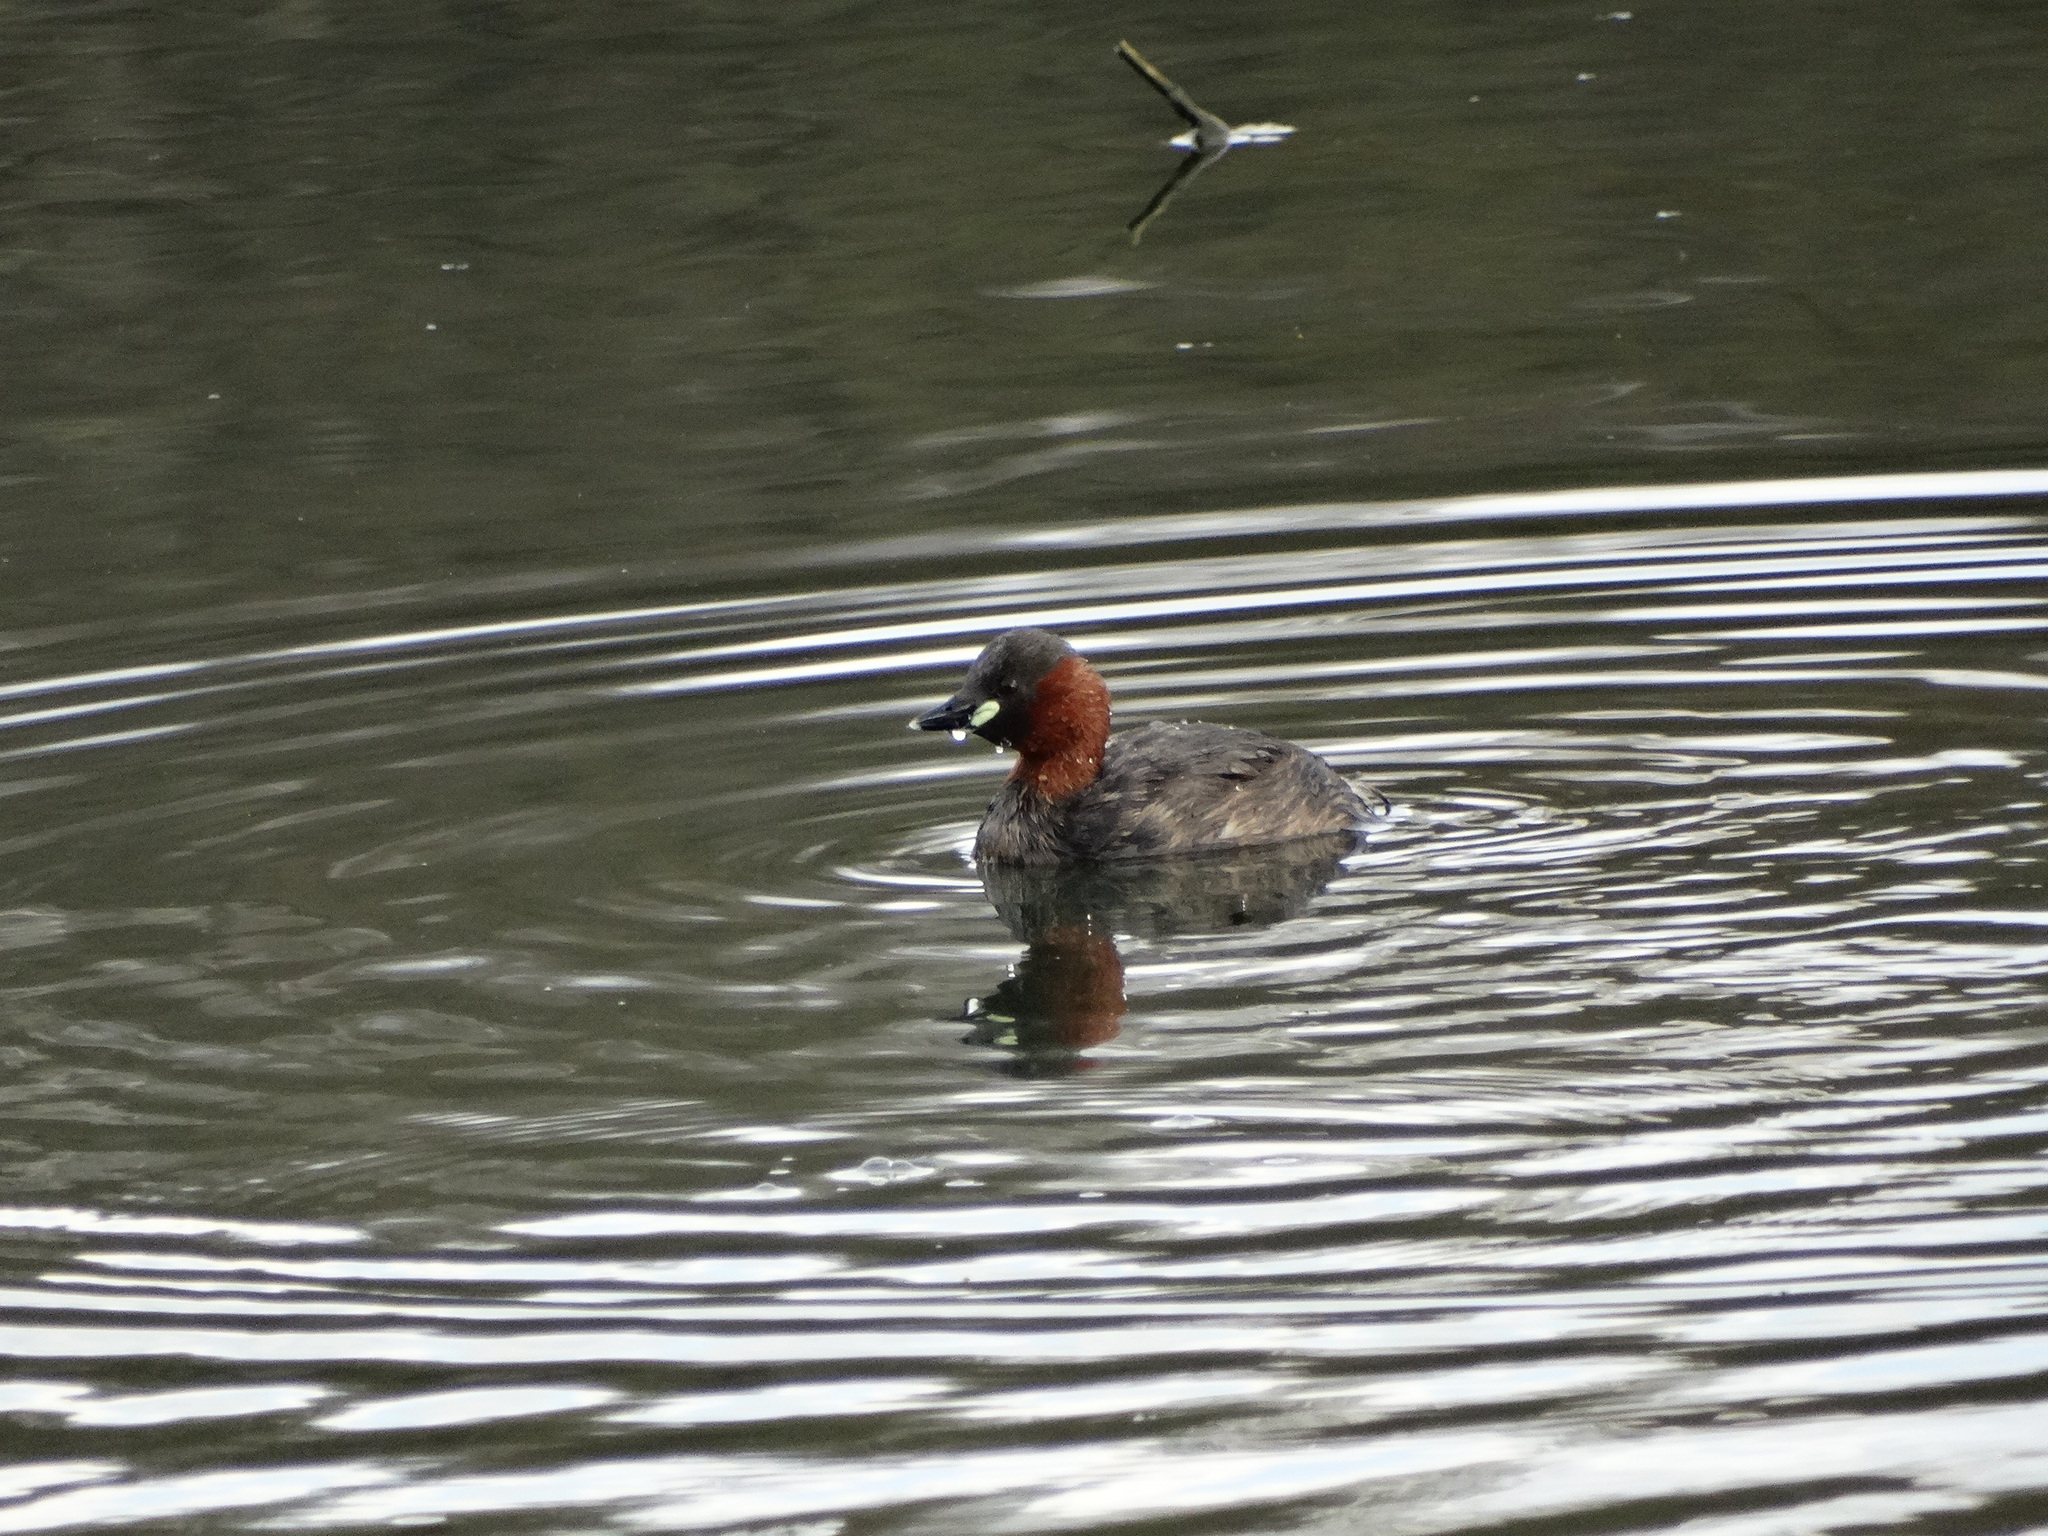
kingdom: Animalia
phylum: Chordata
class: Aves
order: Podicipediformes
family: Podicipedidae
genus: Tachybaptus
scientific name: Tachybaptus ruficollis
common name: Little grebe
